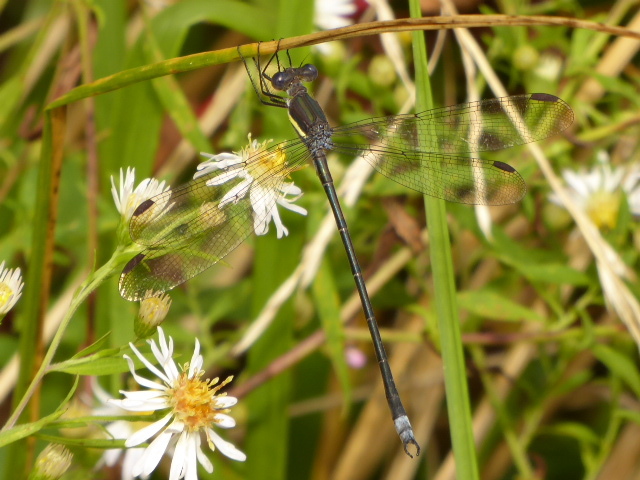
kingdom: Animalia
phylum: Arthropoda
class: Insecta
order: Odonata
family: Lestidae
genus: Archilestes
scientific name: Archilestes grandis
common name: Great spreadwing
